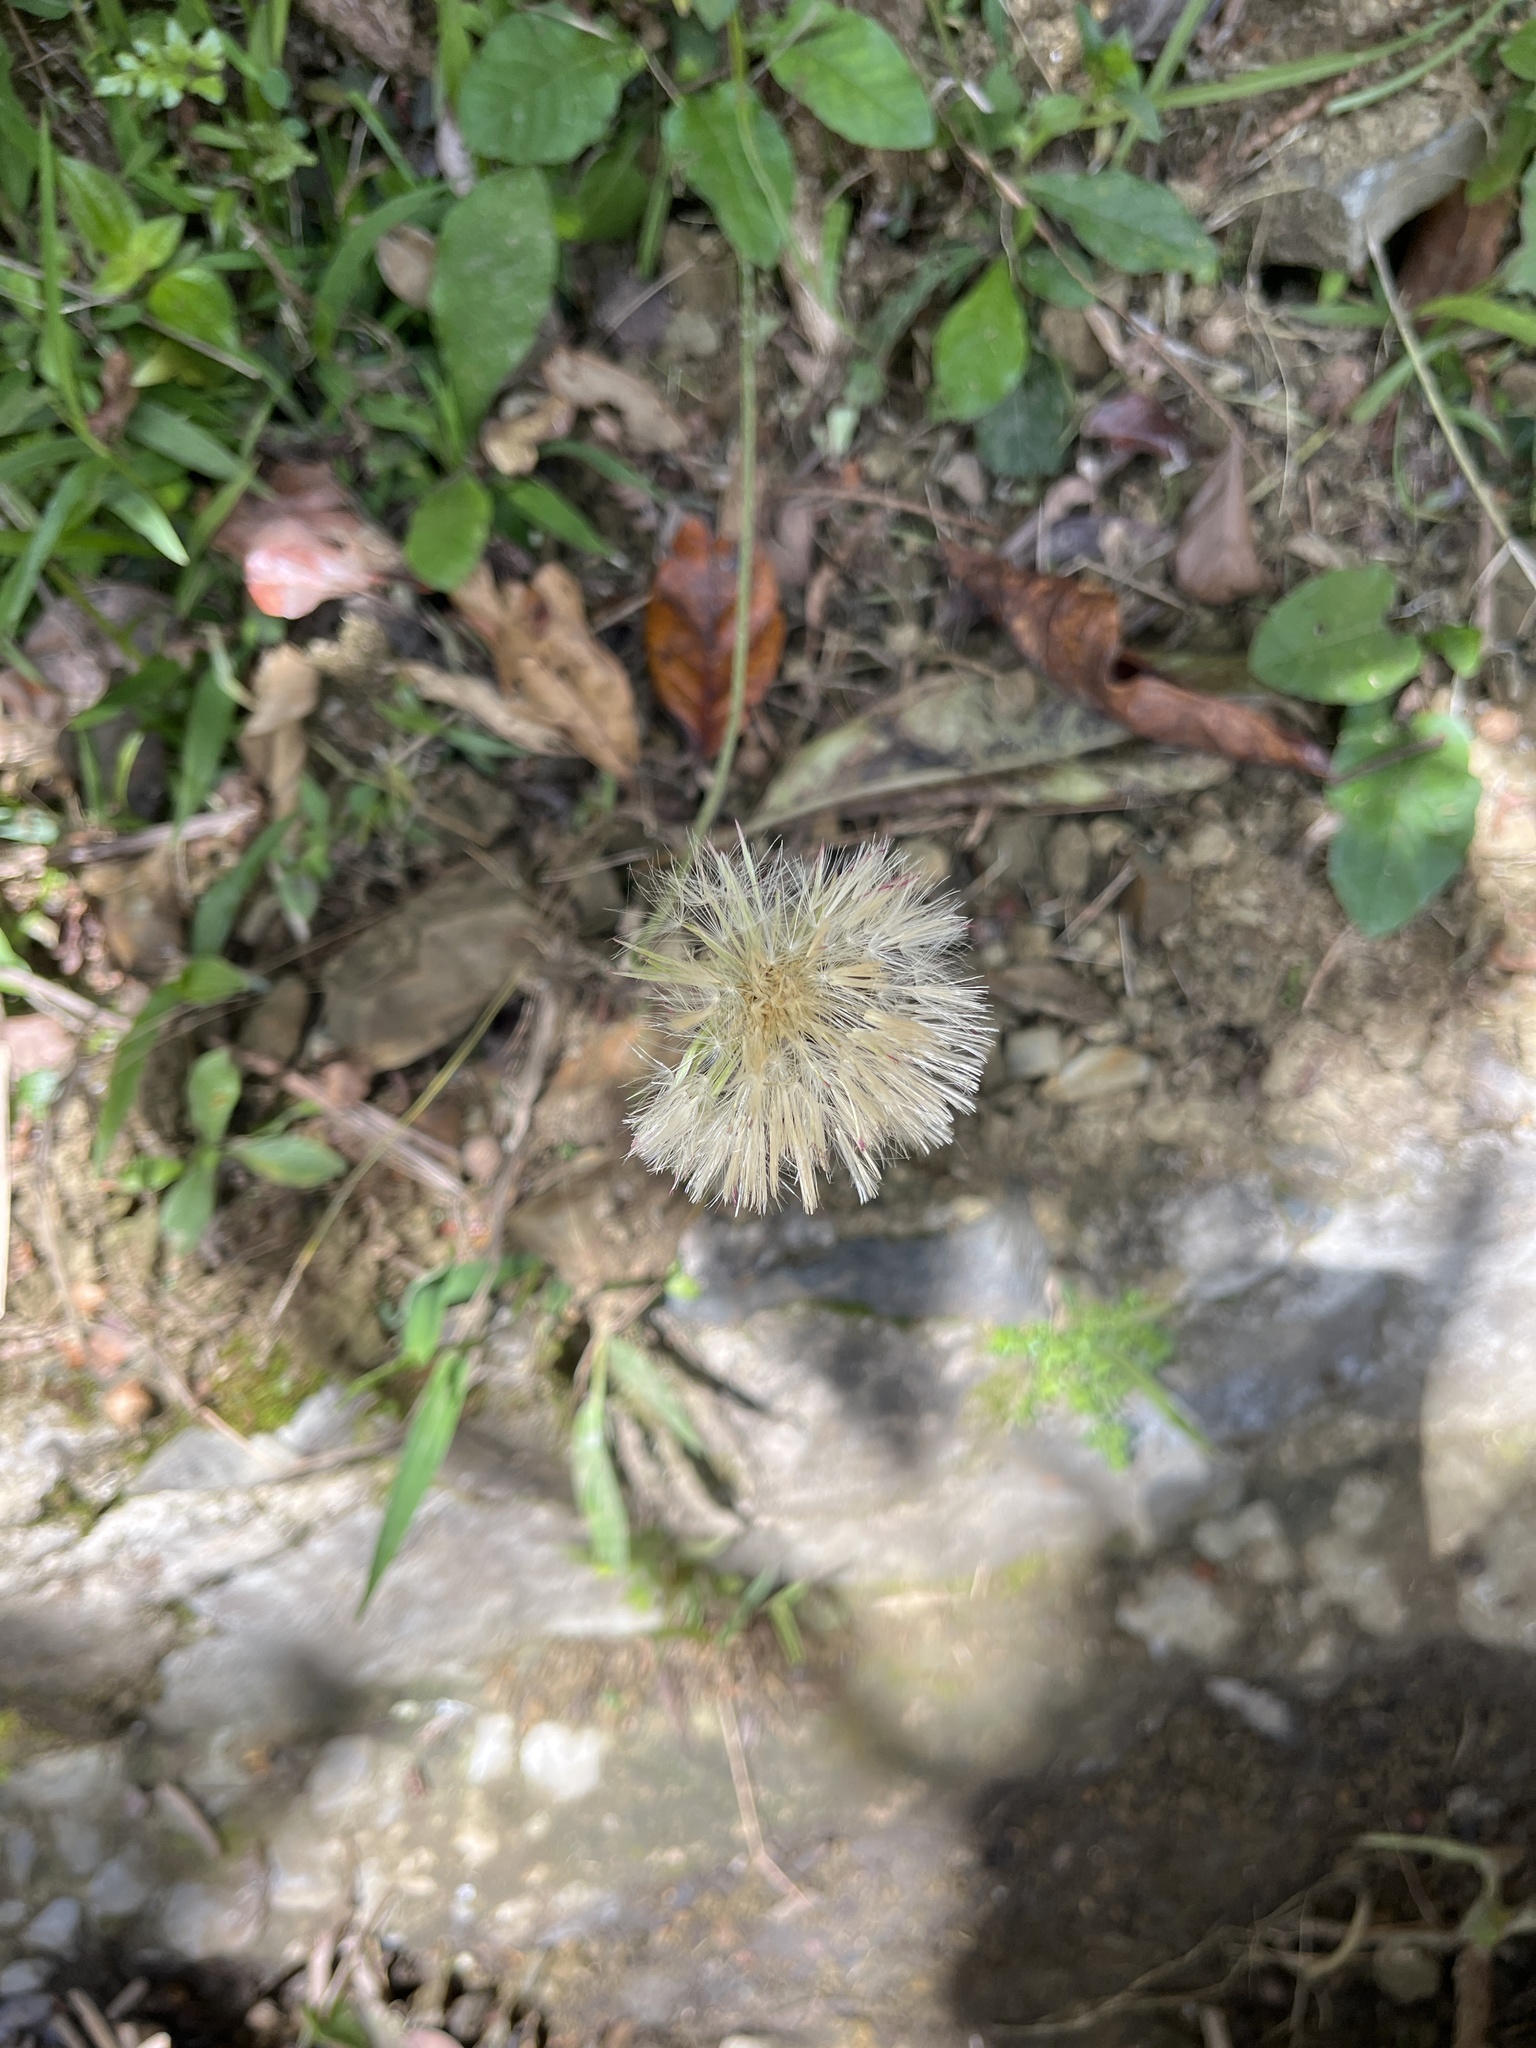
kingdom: Plantae
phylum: Tracheophyta
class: Magnoliopsida
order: Asterales
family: Asteraceae
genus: Chaptalia
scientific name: Chaptalia nutans
